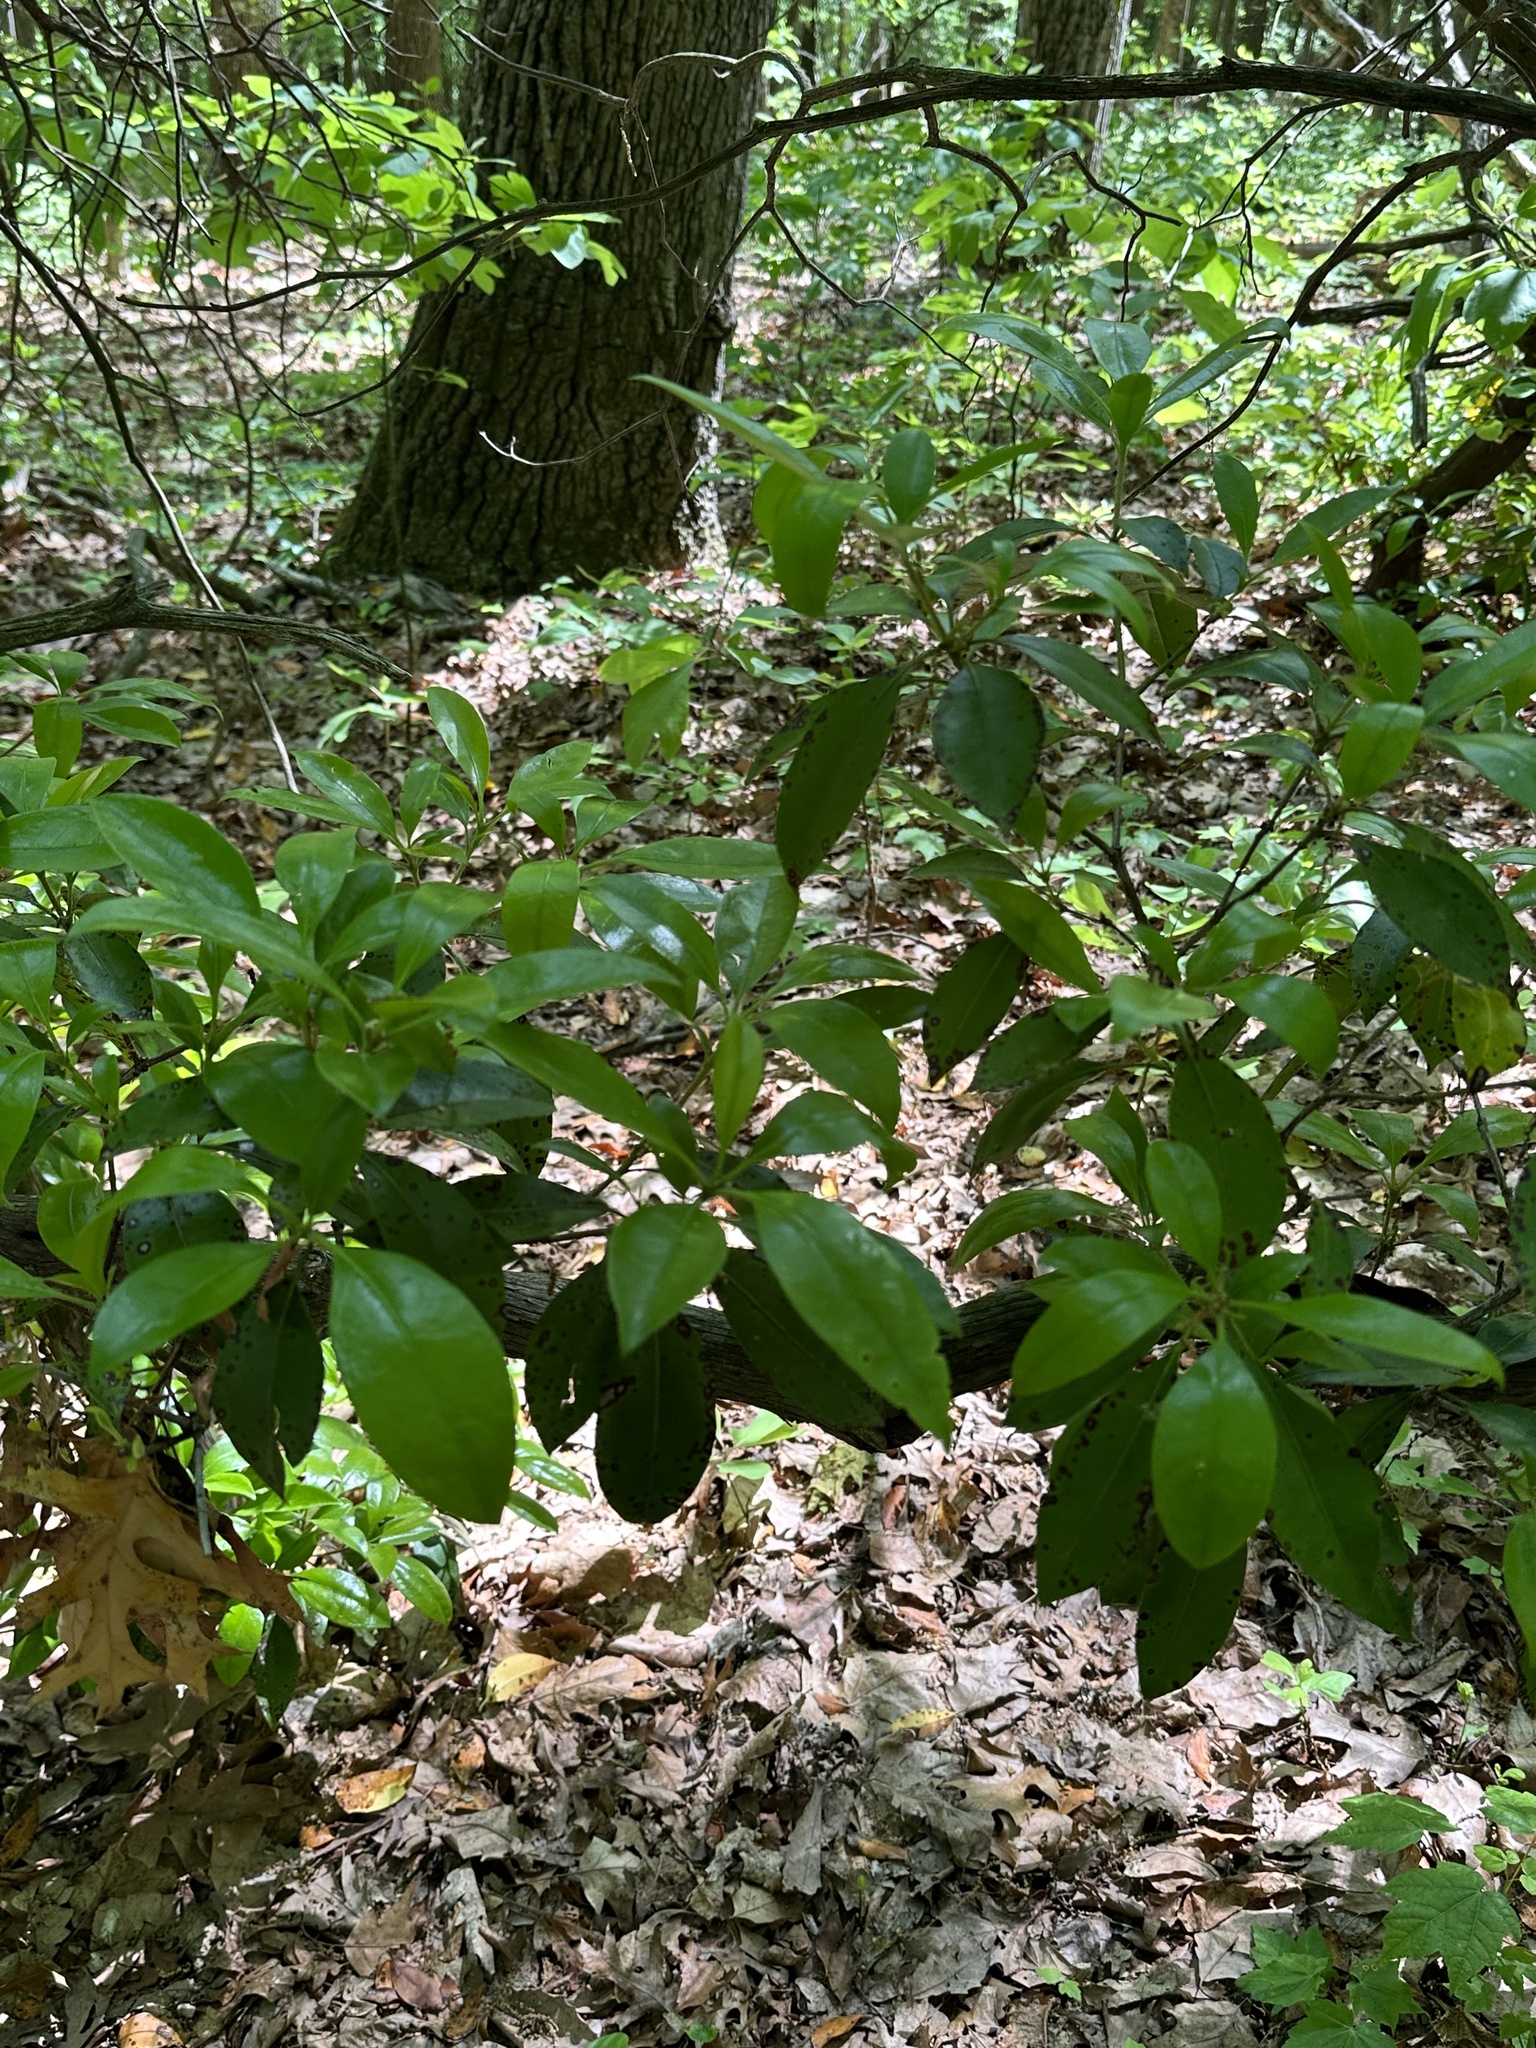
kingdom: Plantae
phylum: Tracheophyta
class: Magnoliopsida
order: Ericales
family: Ericaceae
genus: Kalmia
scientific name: Kalmia latifolia
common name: Mountain-laurel
